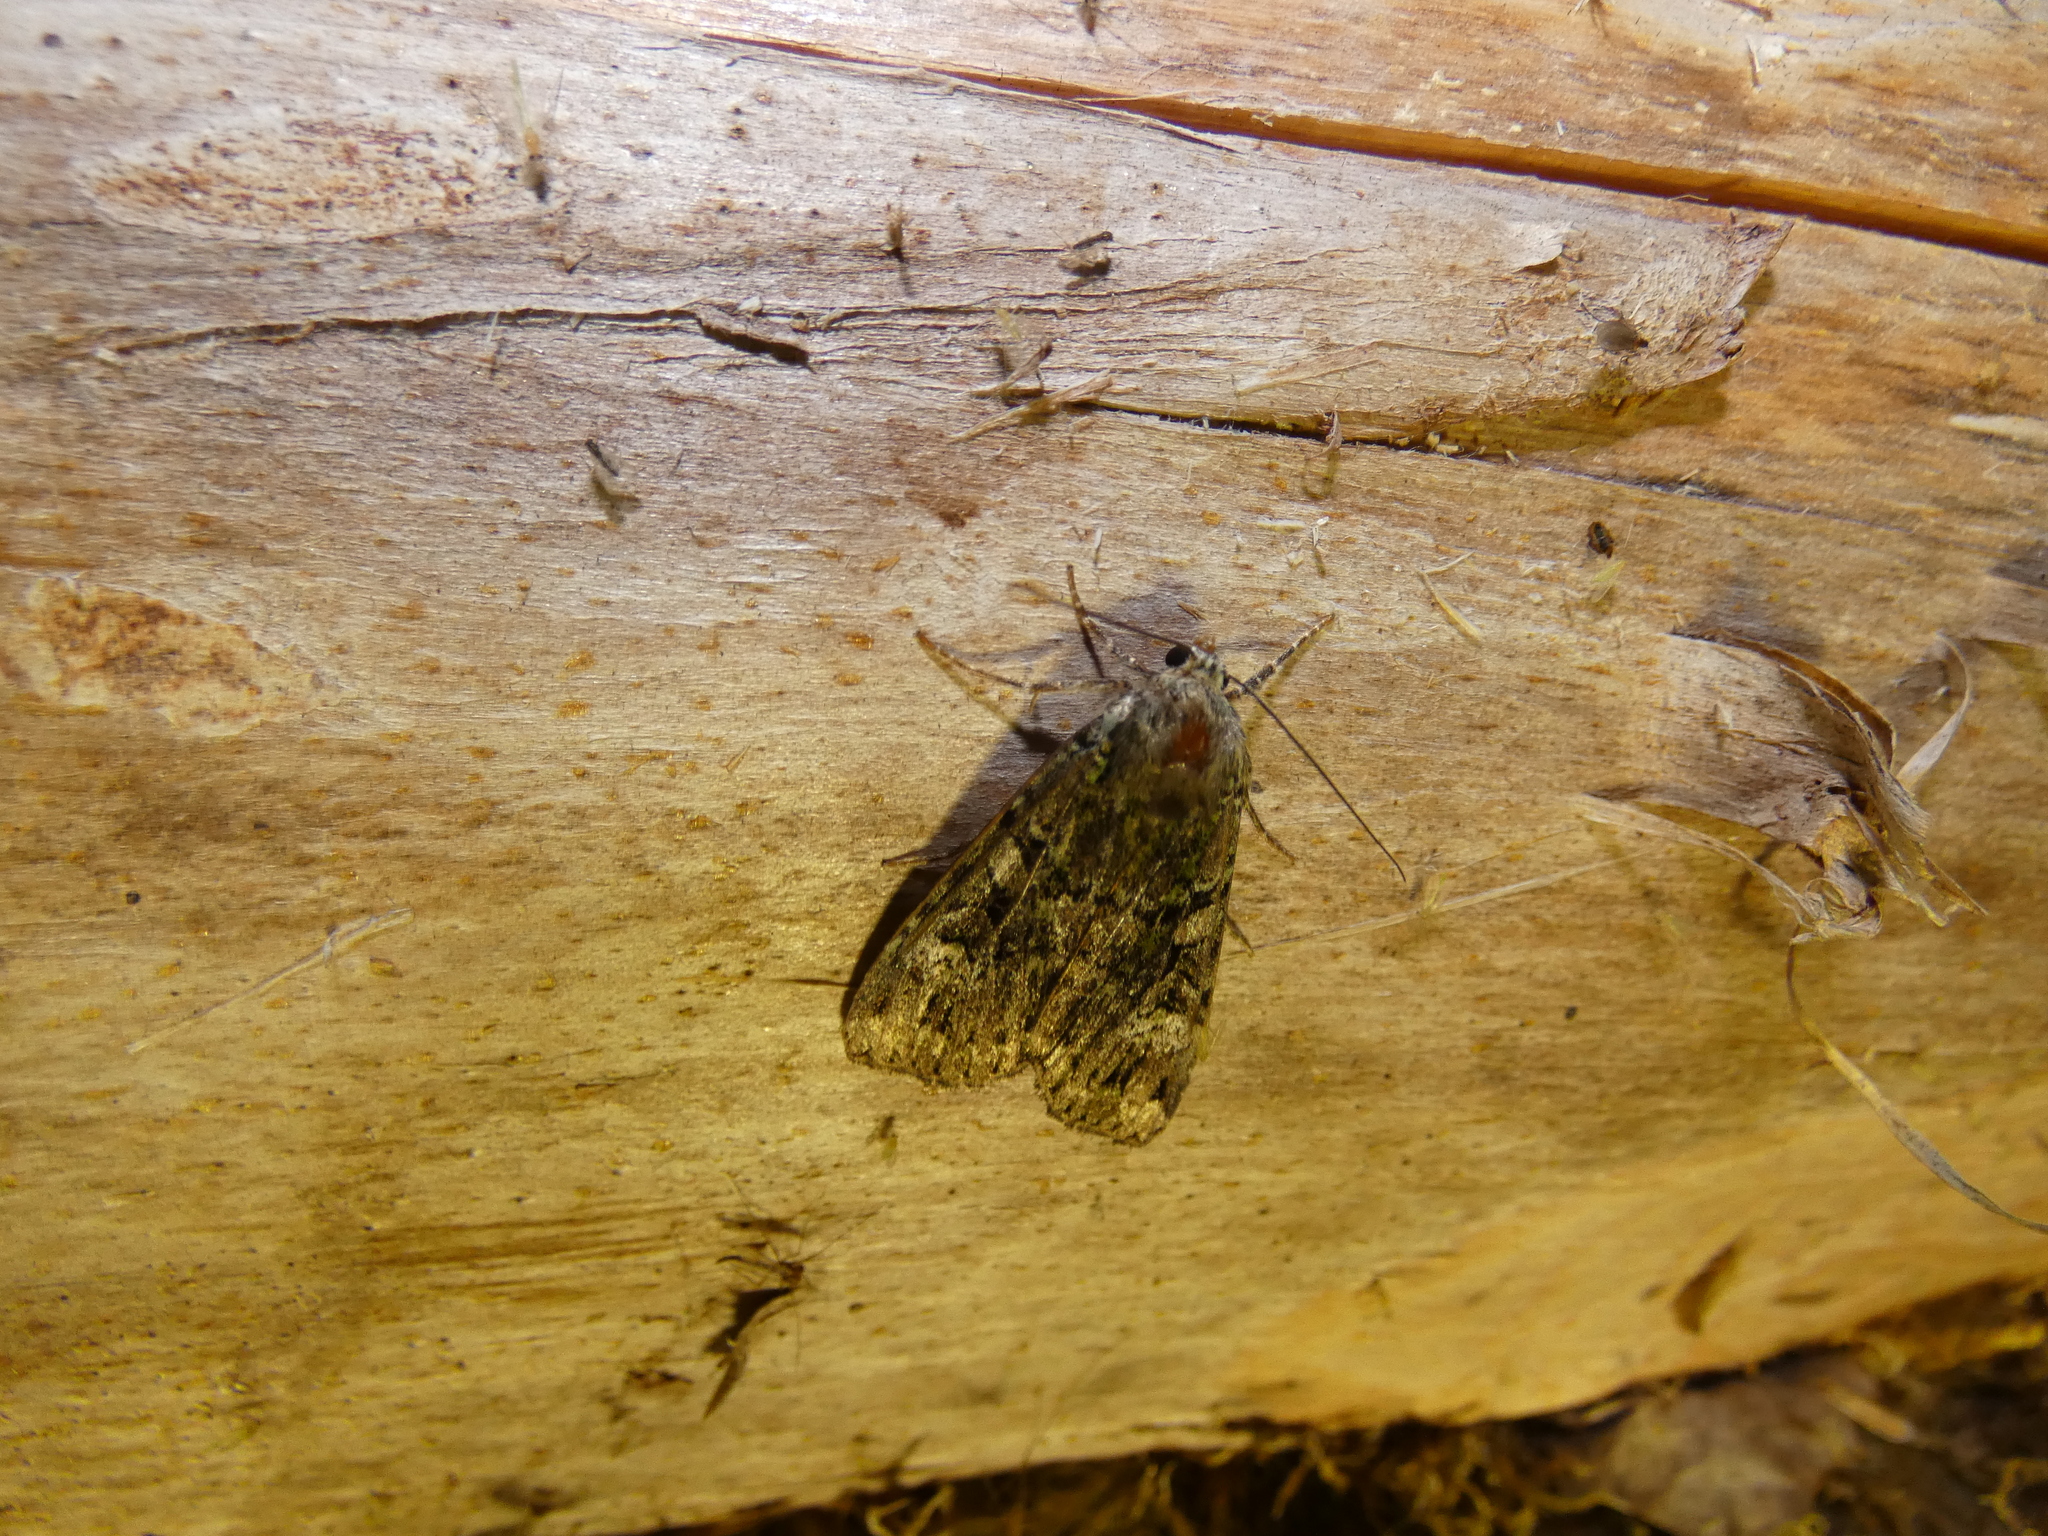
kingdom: Animalia
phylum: Arthropoda
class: Insecta
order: Lepidoptera
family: Noctuidae
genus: Anaplectoides
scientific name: Anaplectoides prasina
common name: Green arches
